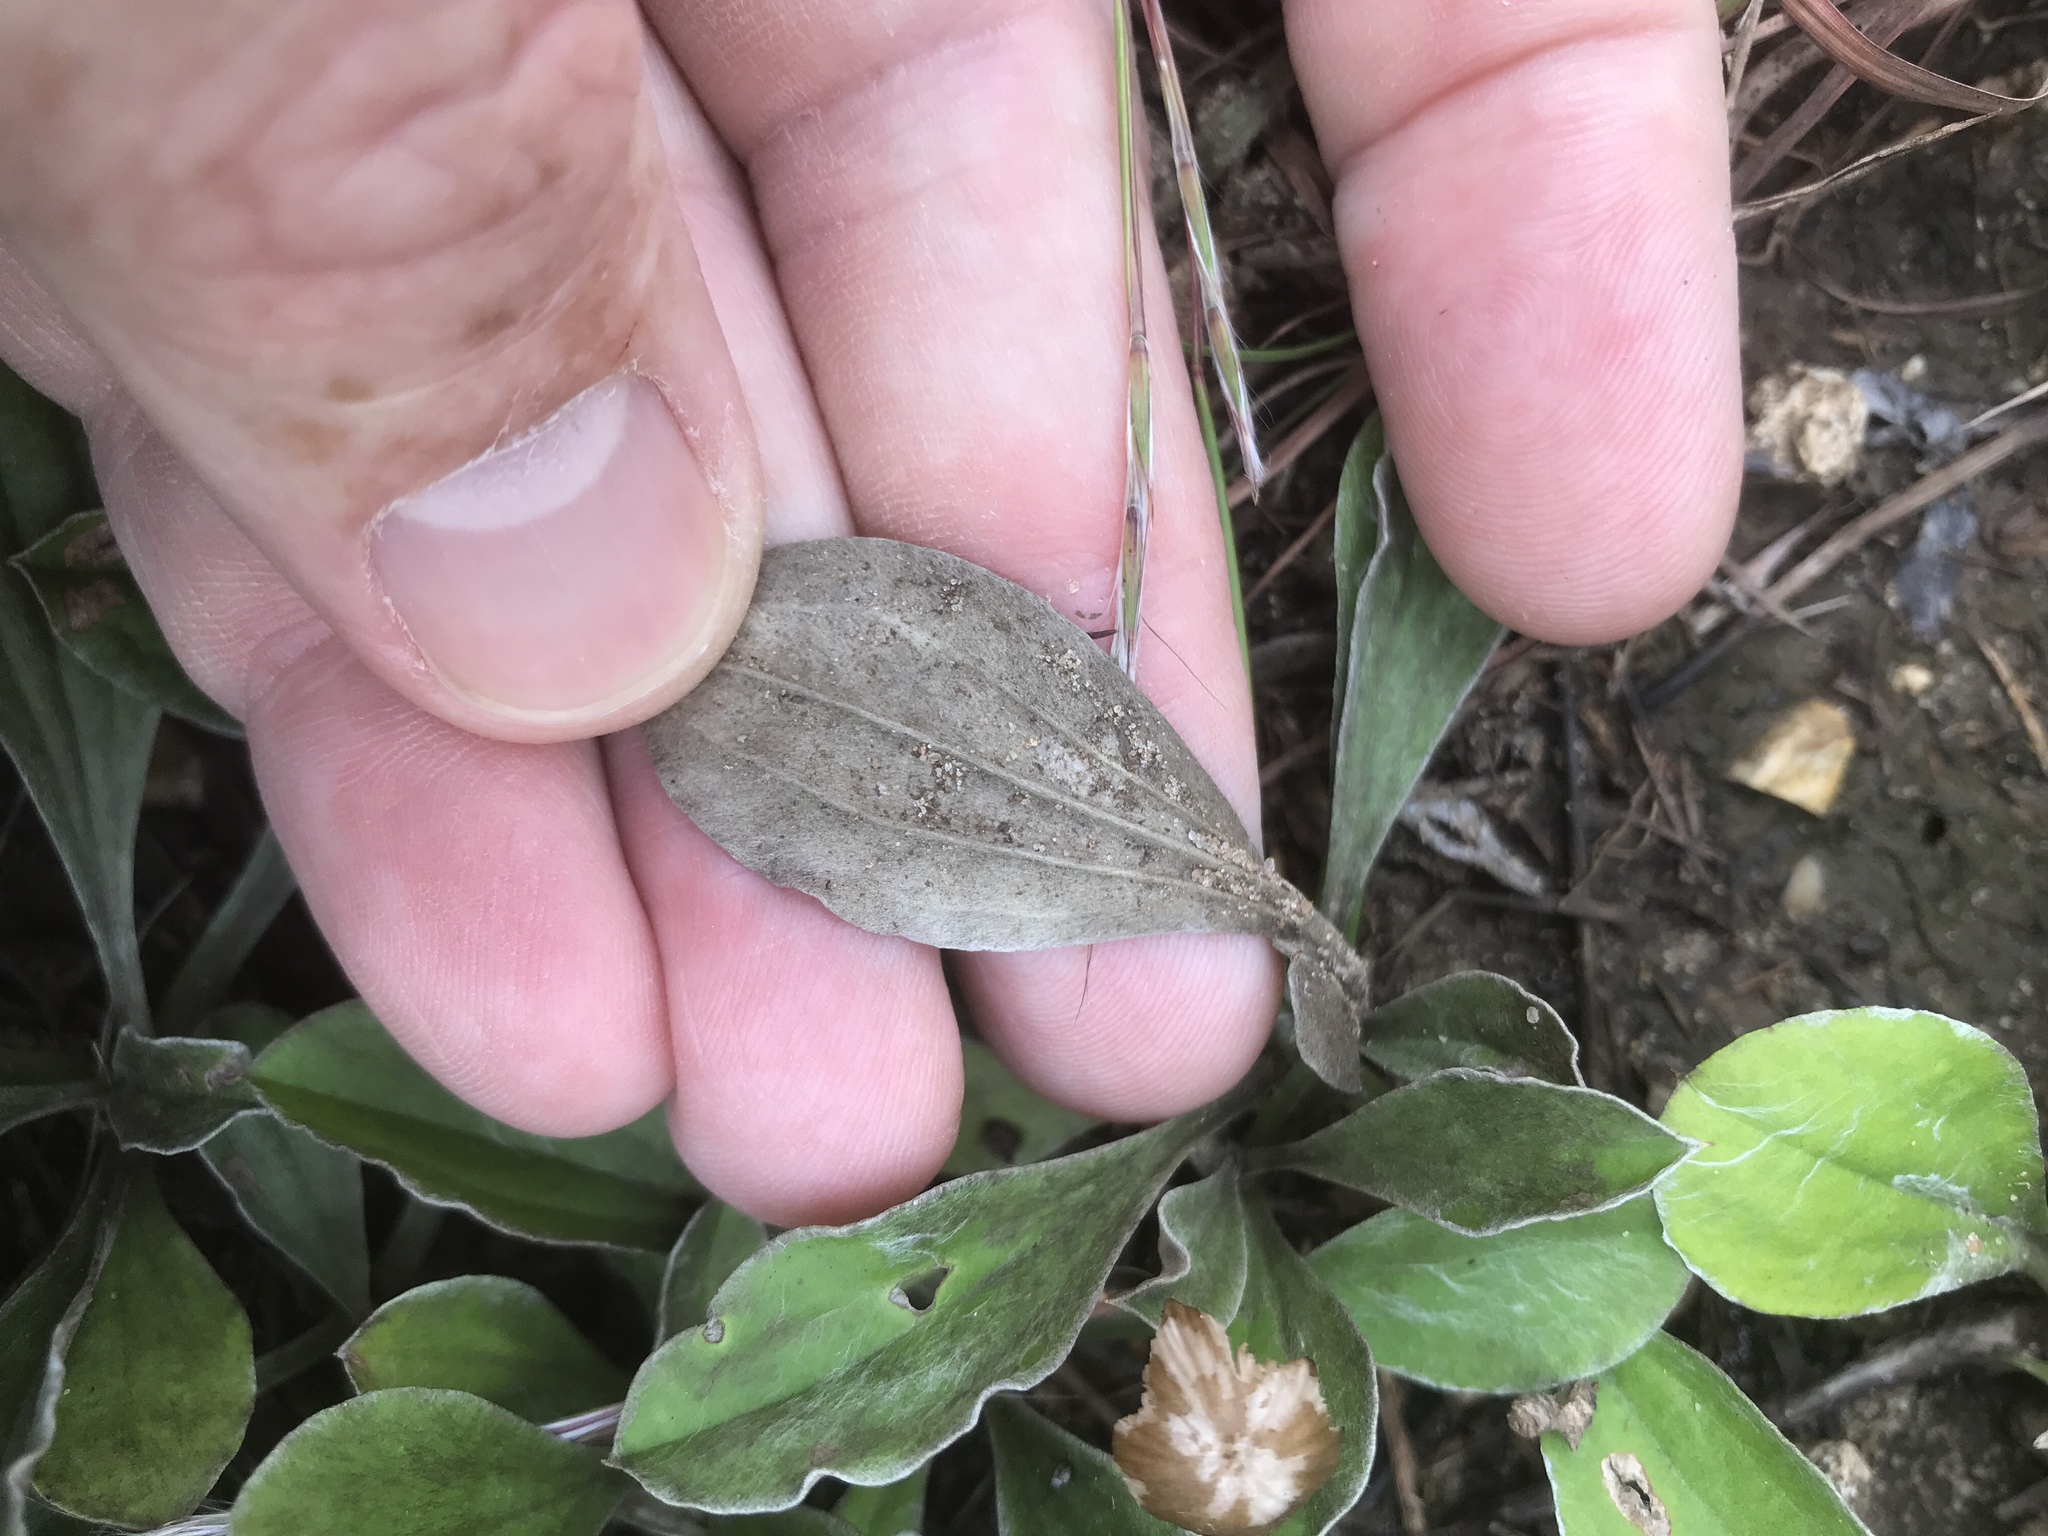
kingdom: Plantae
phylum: Tracheophyta
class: Magnoliopsida
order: Asterales
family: Asteraceae
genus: Antennaria
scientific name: Antennaria plantaginifolia
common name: Plantain-leaved pussytoes
